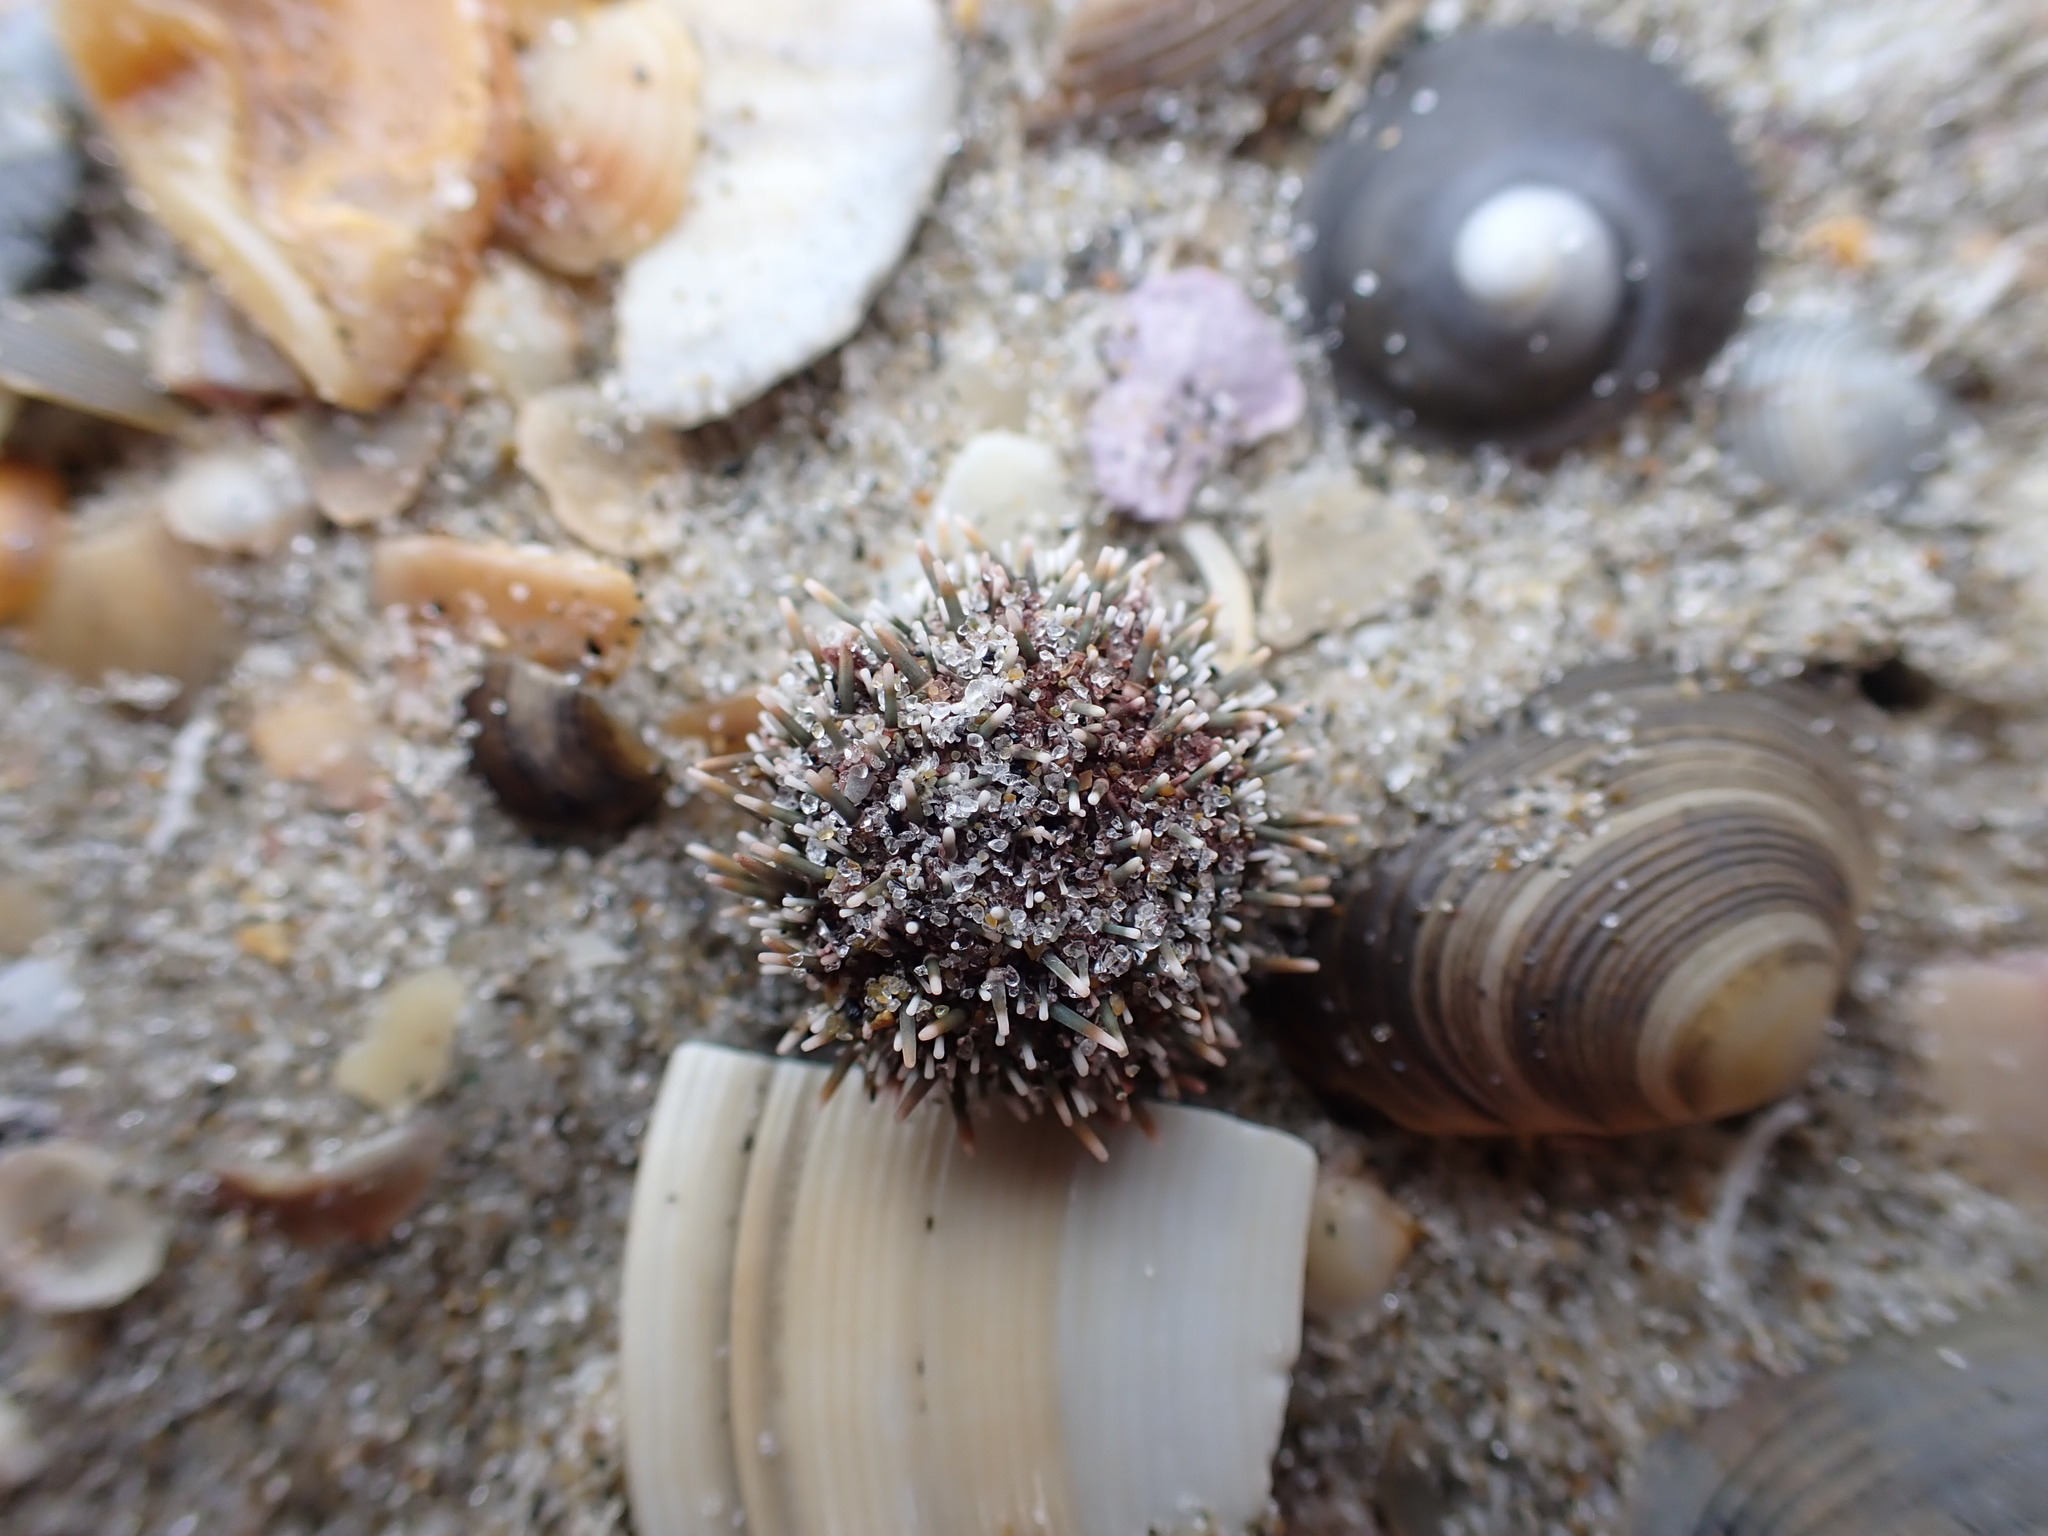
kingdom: Animalia
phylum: Echinodermata
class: Echinoidea
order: Camarodonta
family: Echinometridae
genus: Evechinus
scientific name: Evechinus chloroticus
